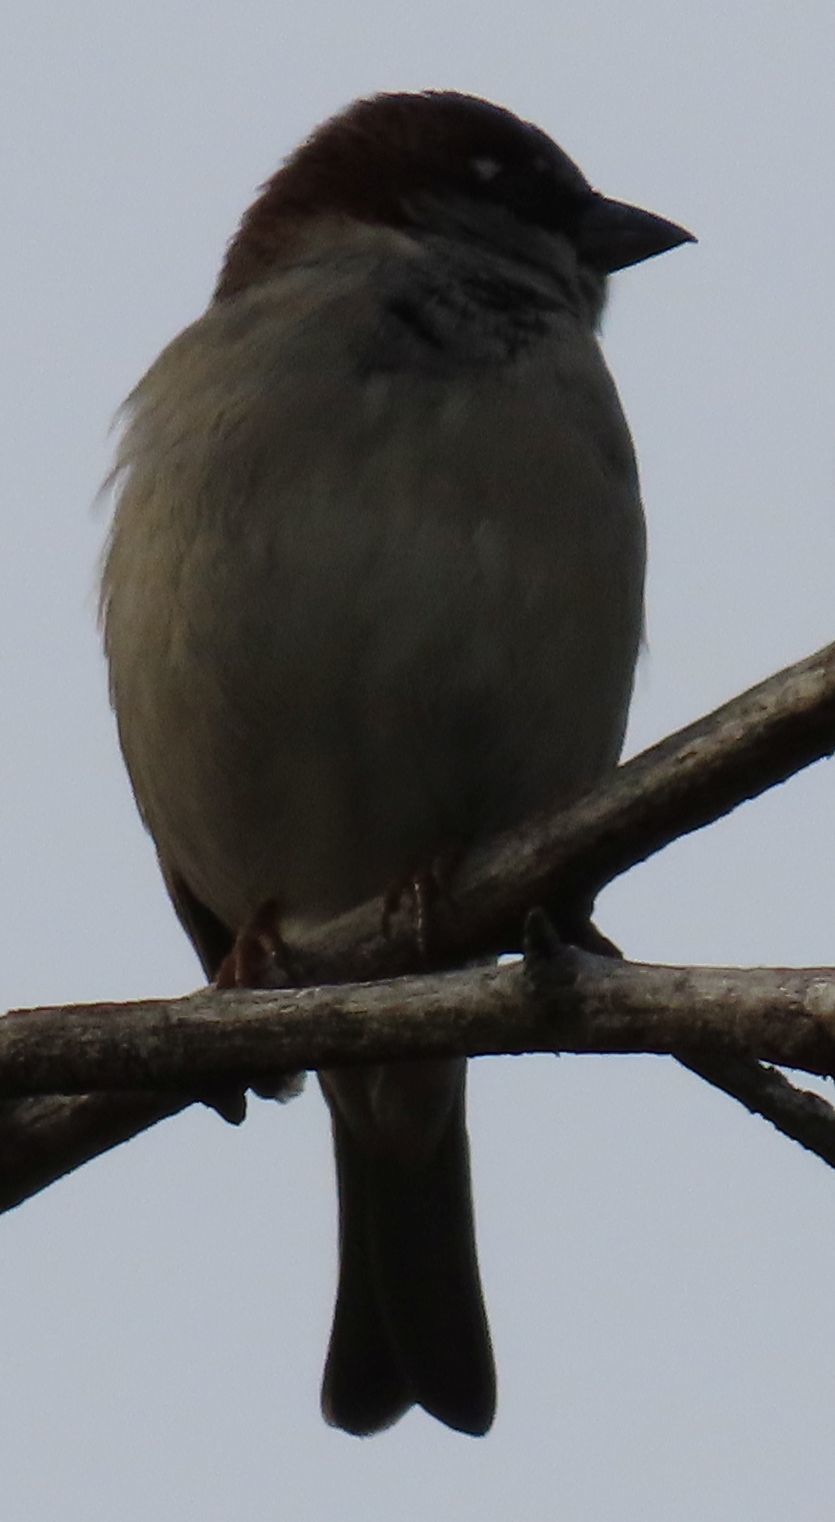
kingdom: Animalia
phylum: Chordata
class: Aves
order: Passeriformes
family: Passeridae
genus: Passer
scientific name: Passer domesticus
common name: House sparrow
